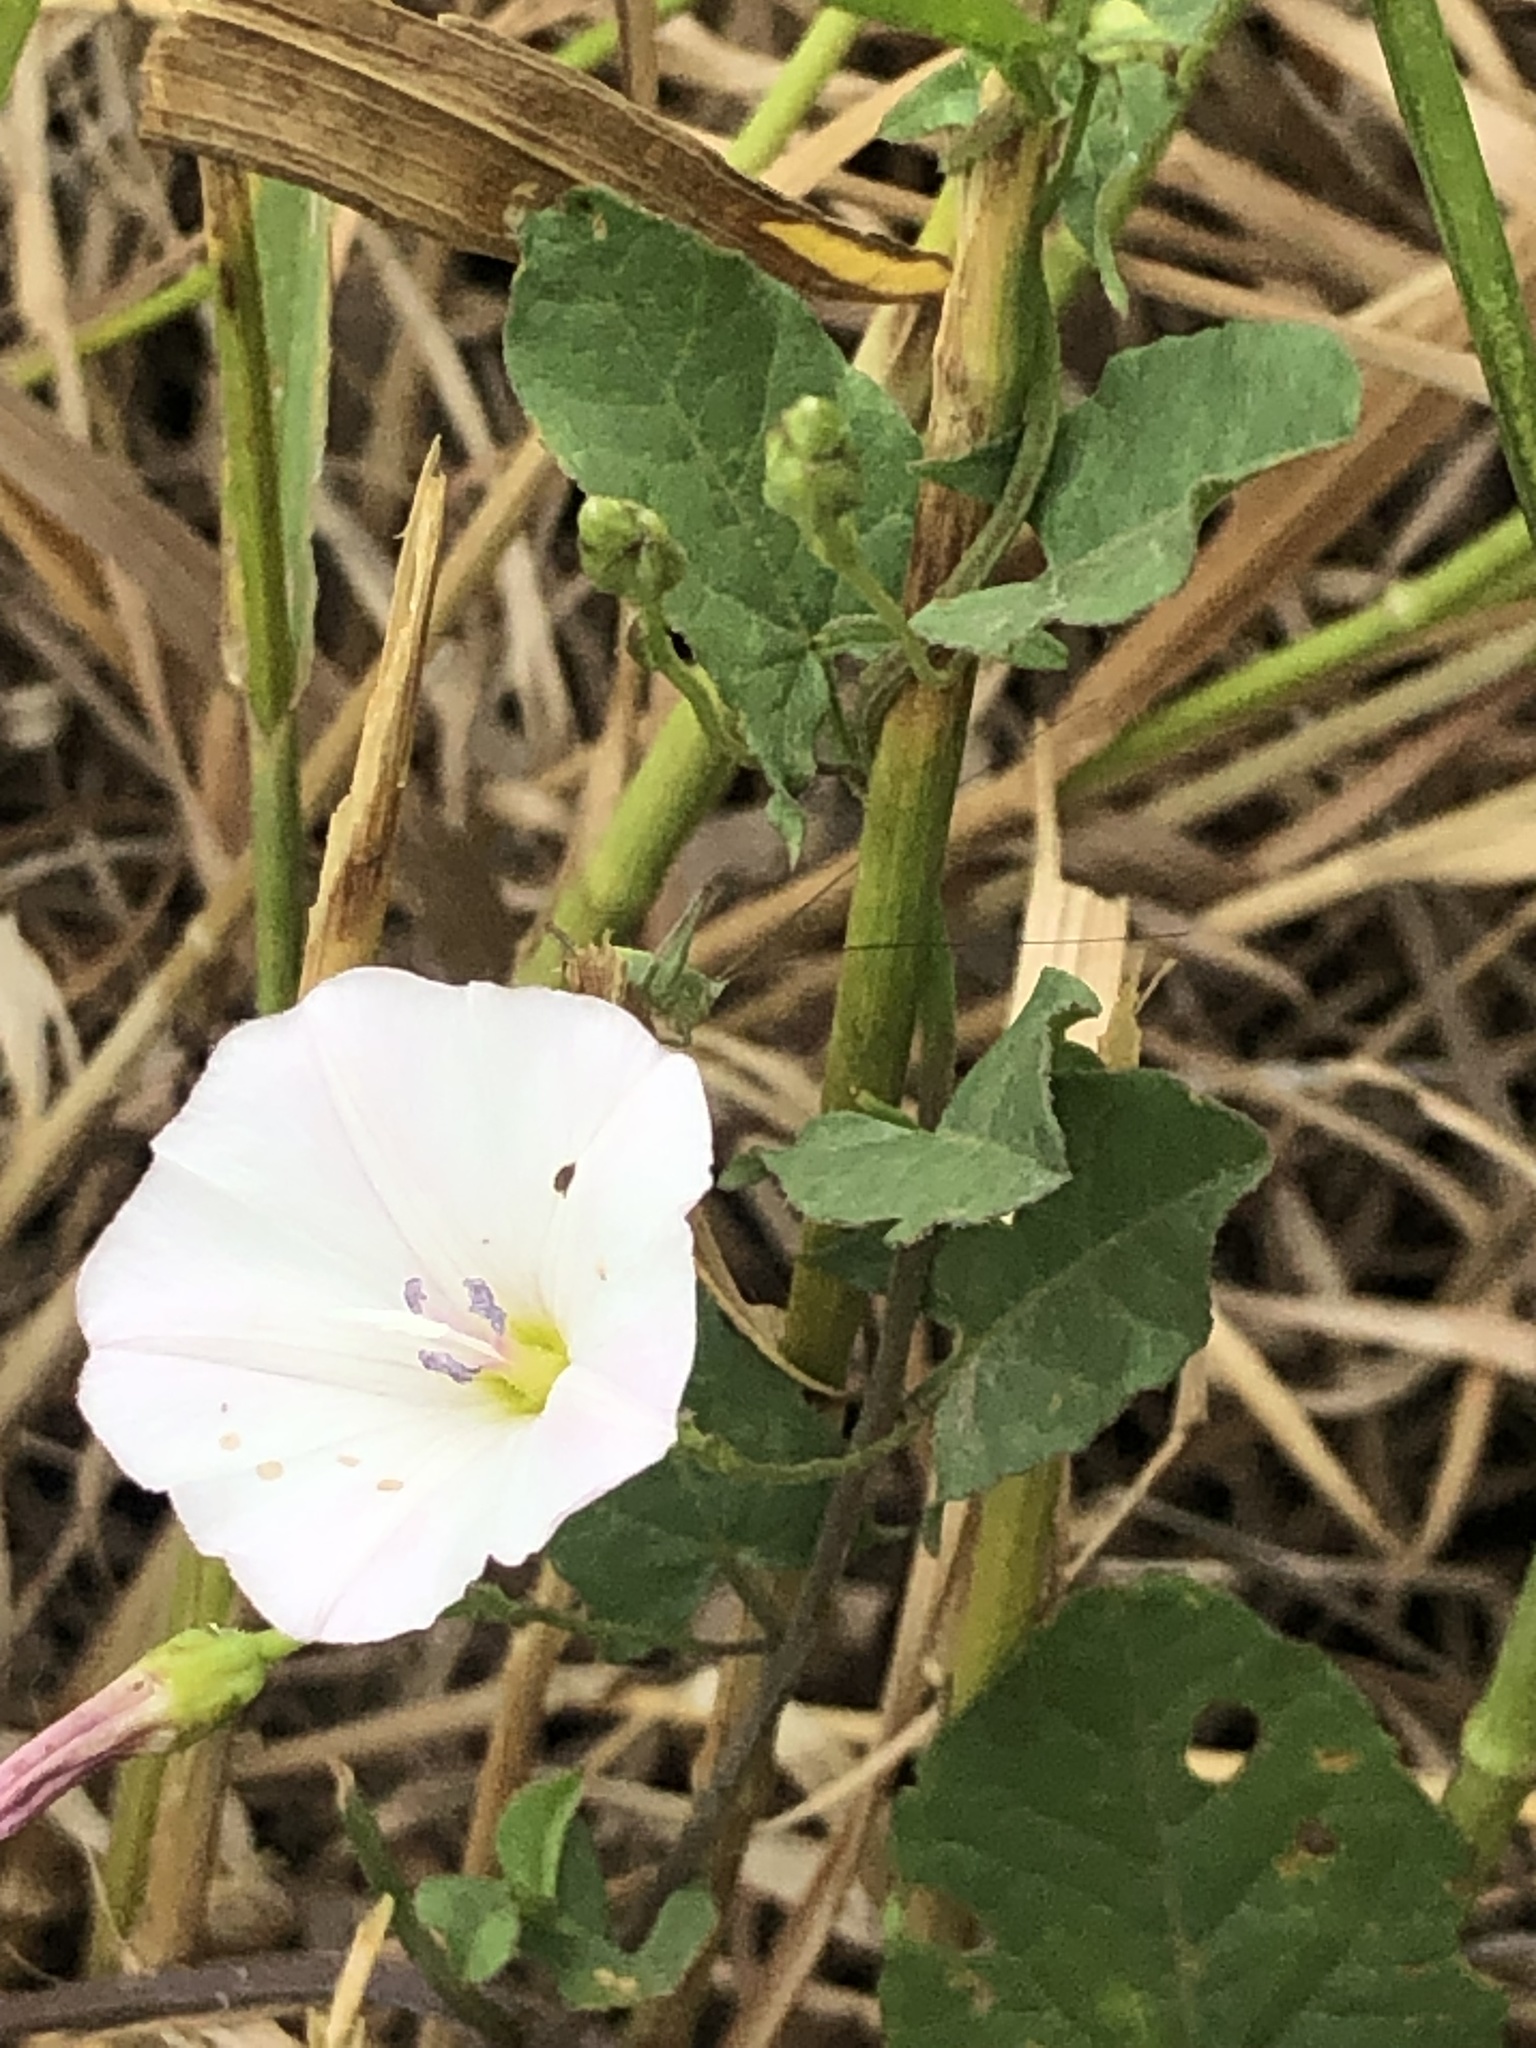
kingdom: Plantae
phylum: Tracheophyta
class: Magnoliopsida
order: Solanales
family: Convolvulaceae
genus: Convolvulus
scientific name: Convolvulus arvensis
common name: Field bindweed
